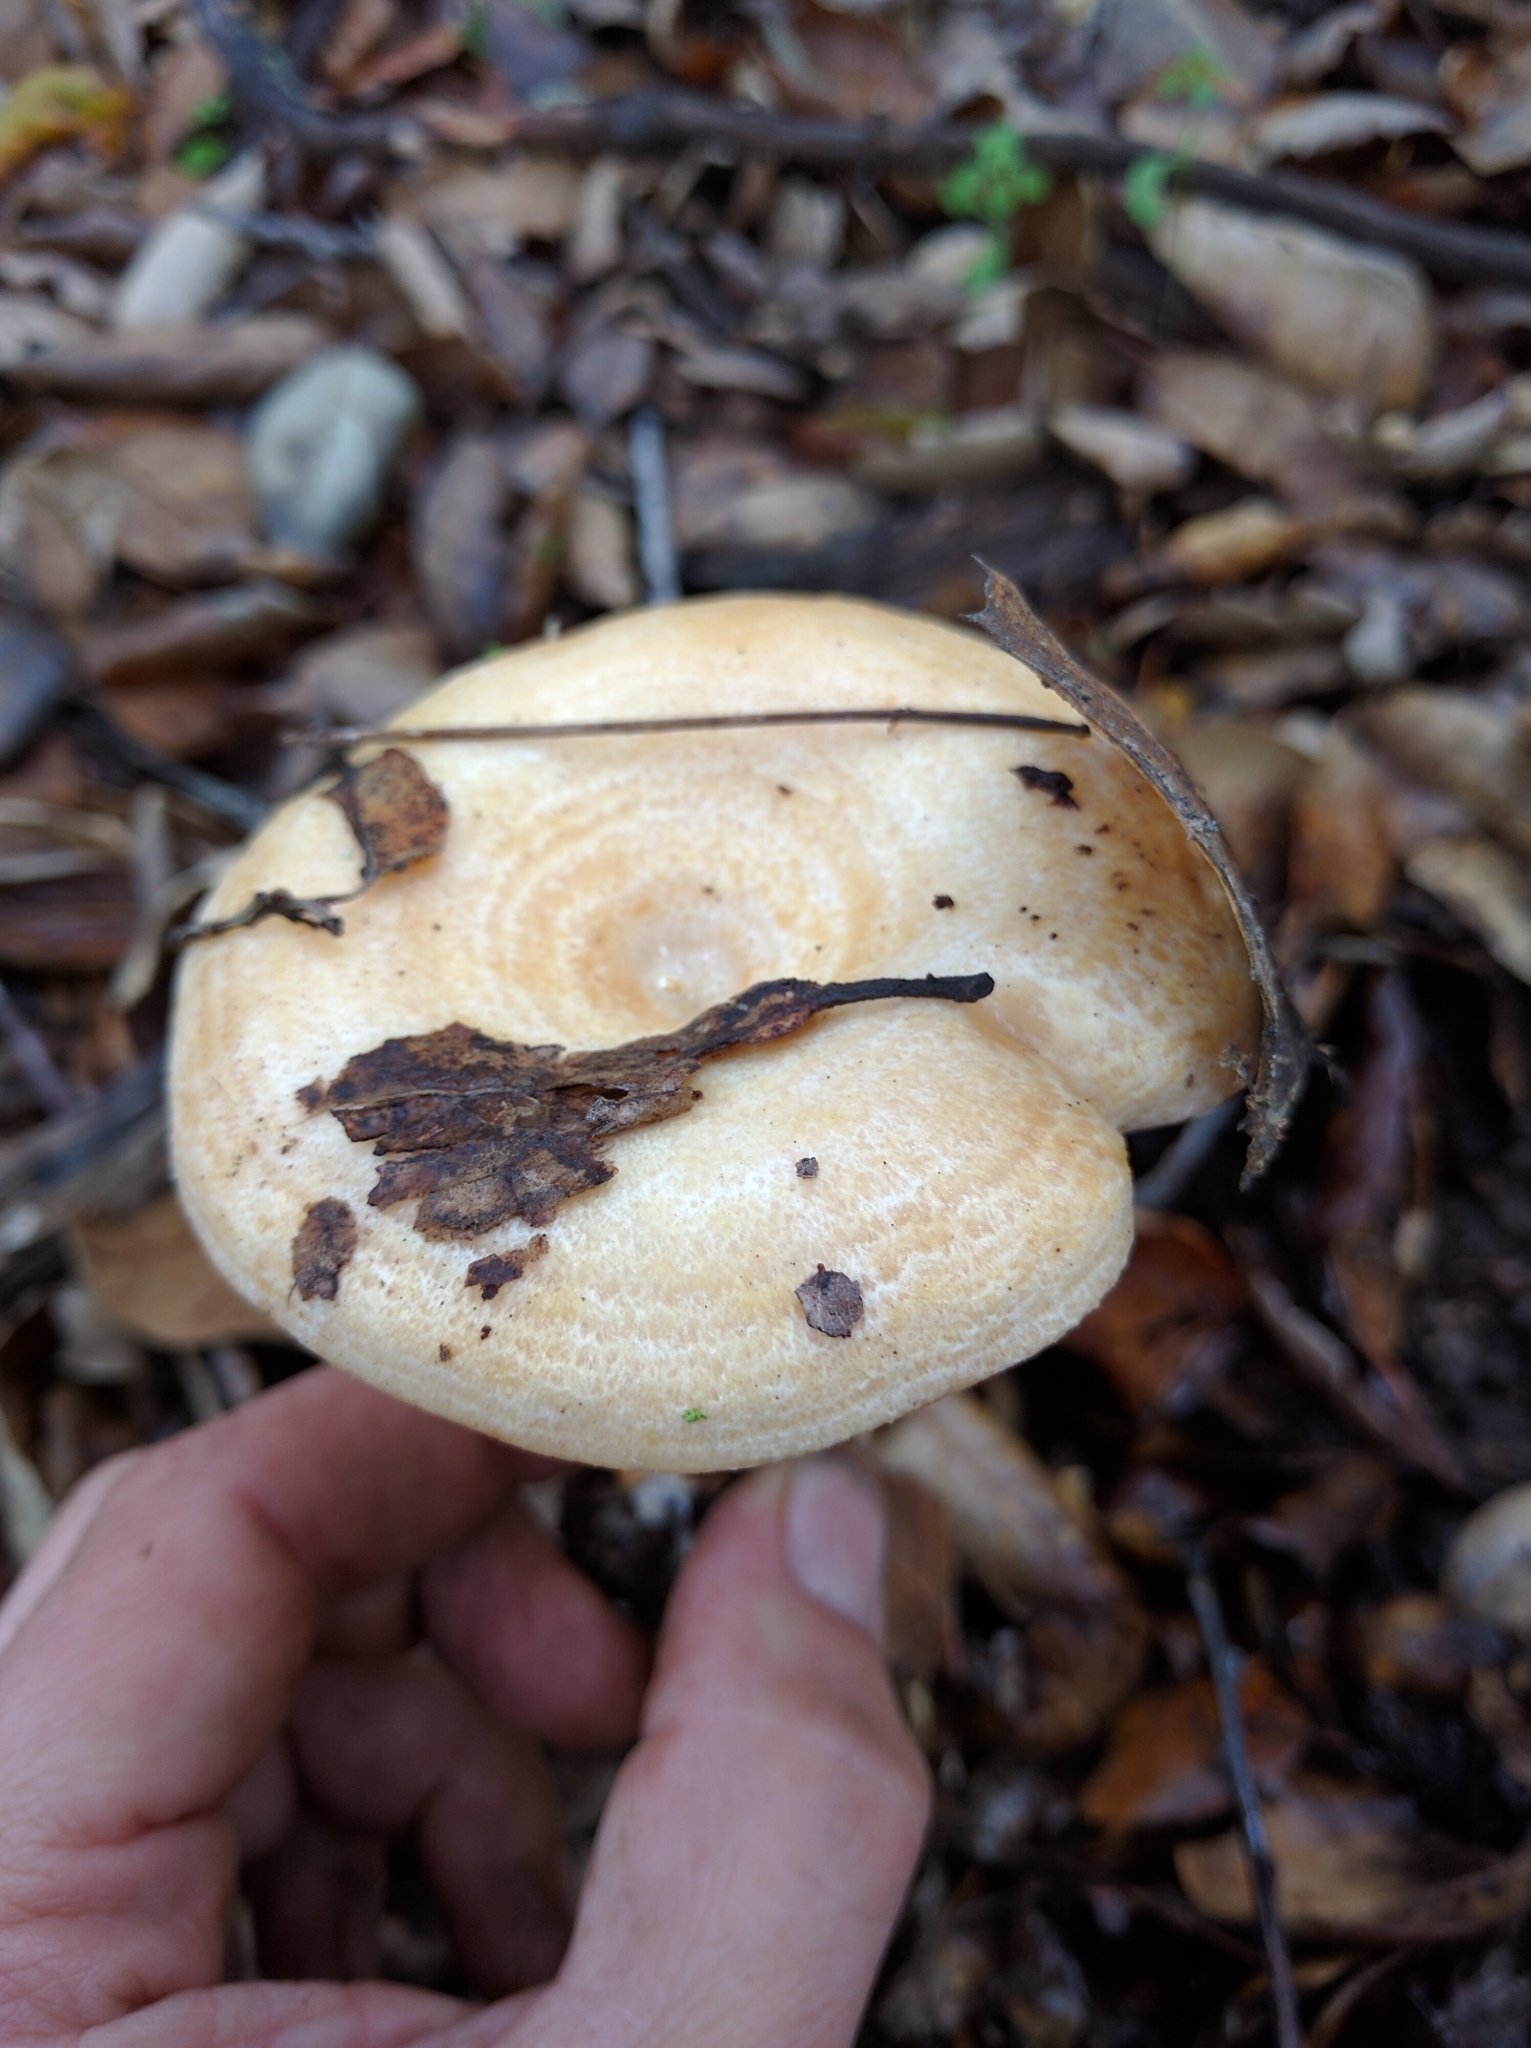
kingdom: Fungi
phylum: Basidiomycota
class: Agaricomycetes
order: Russulales
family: Russulaceae
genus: Lactarius
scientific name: Lactarius alnicola
